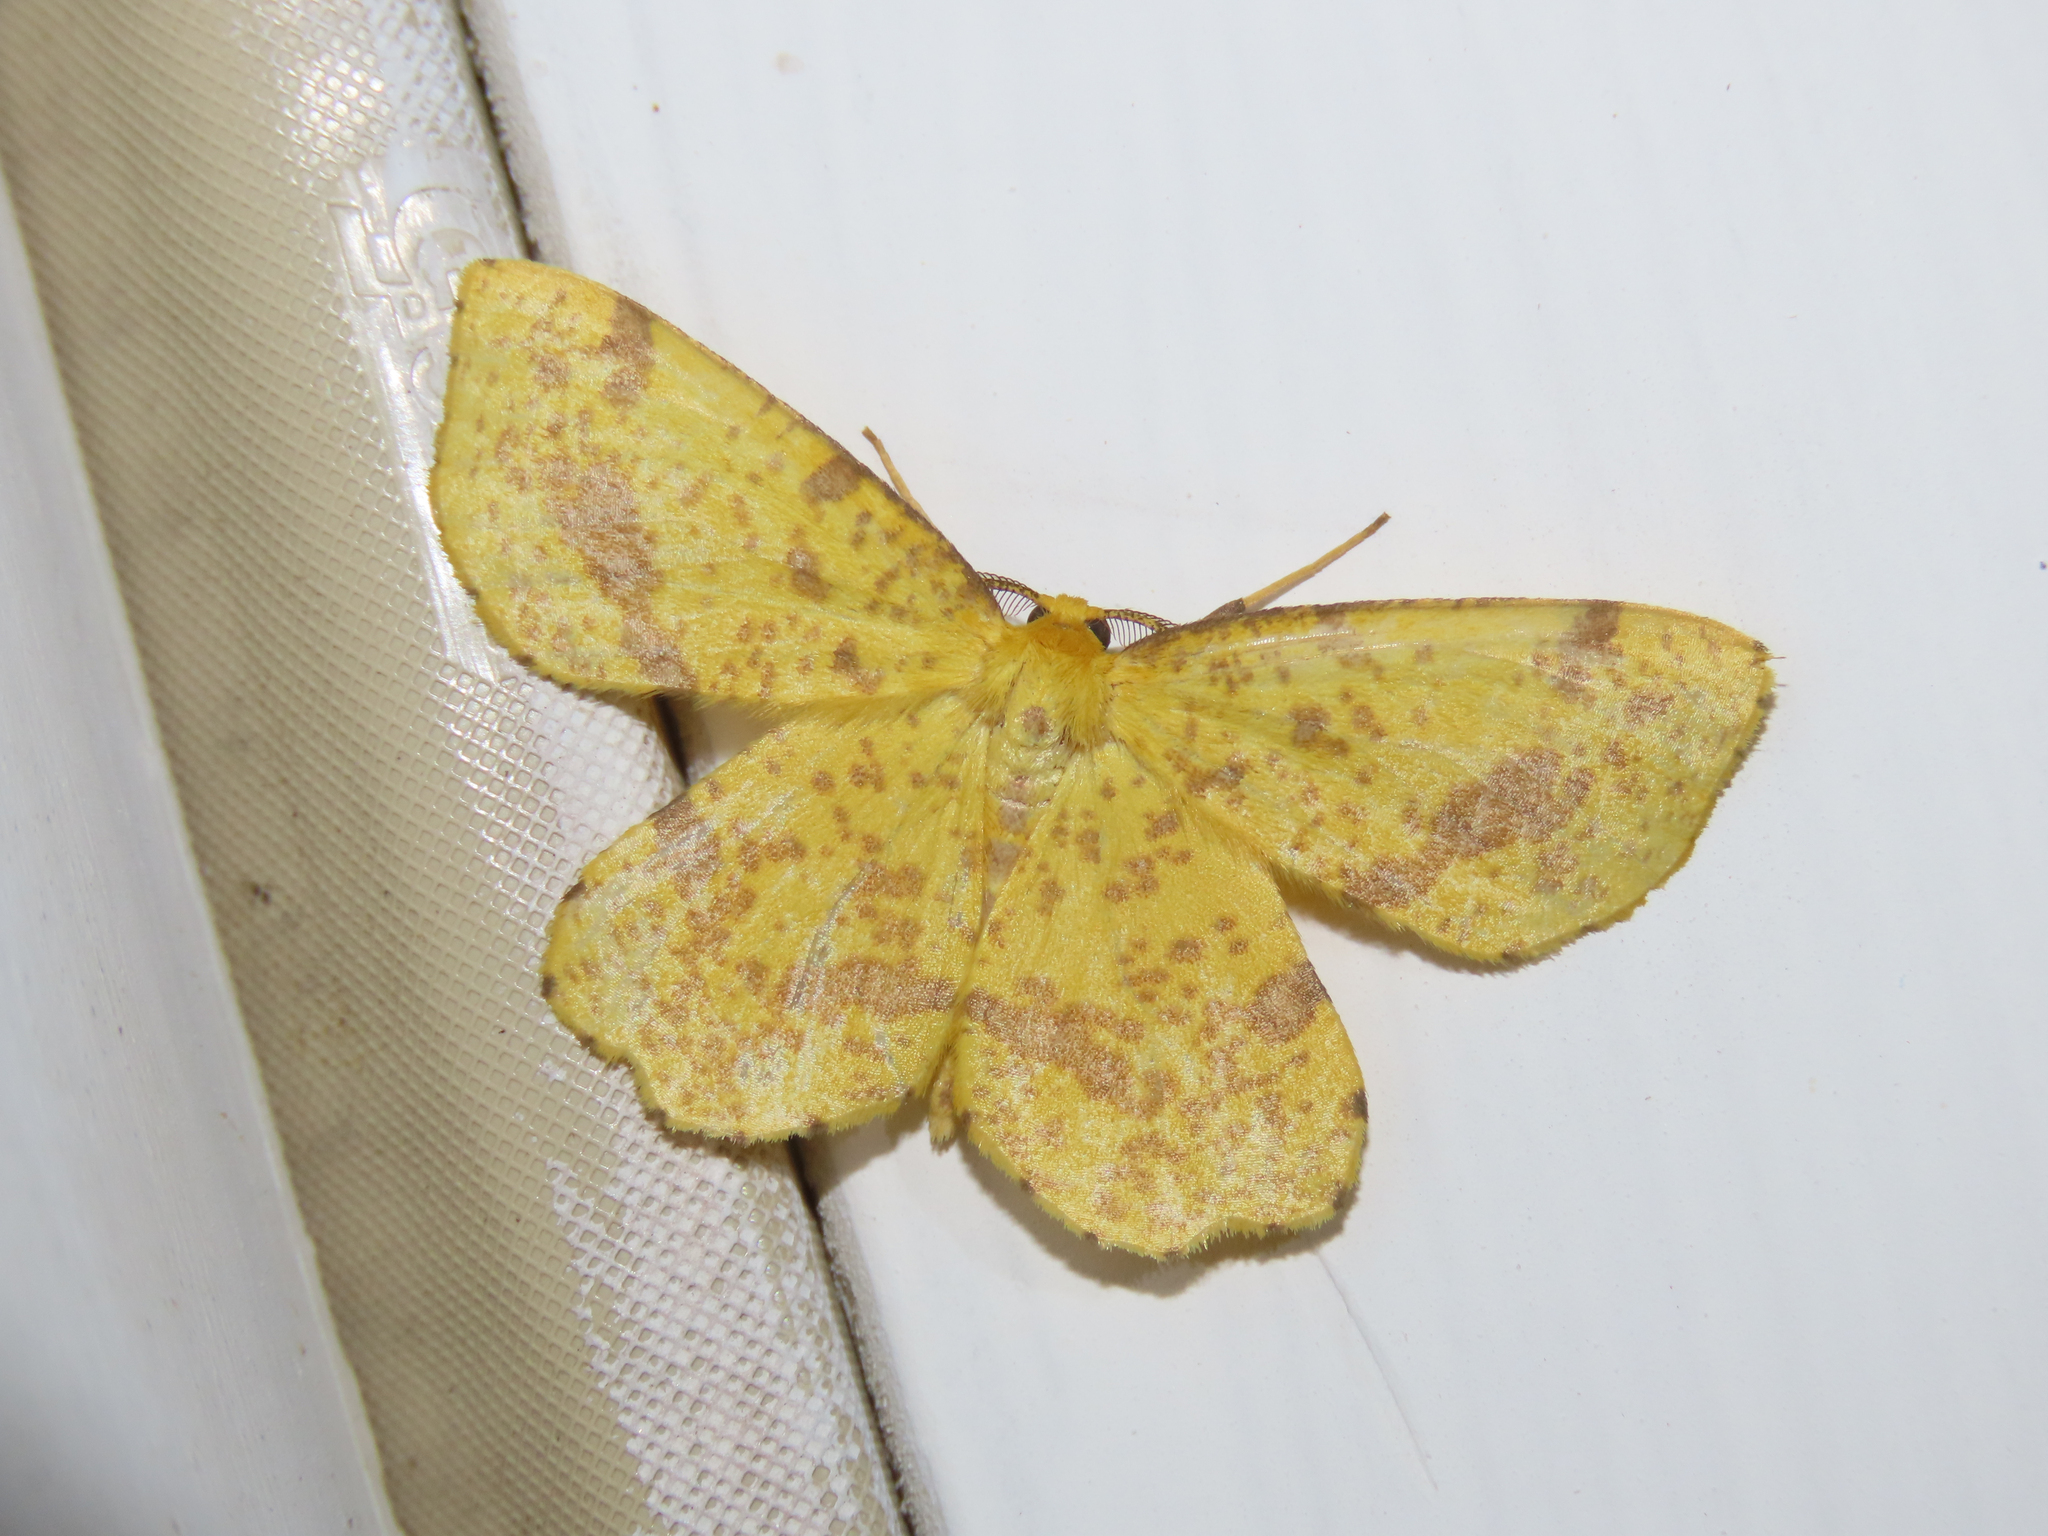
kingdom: Animalia
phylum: Arthropoda
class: Insecta
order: Lepidoptera
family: Geometridae
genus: Xanthotype
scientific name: Xanthotype
